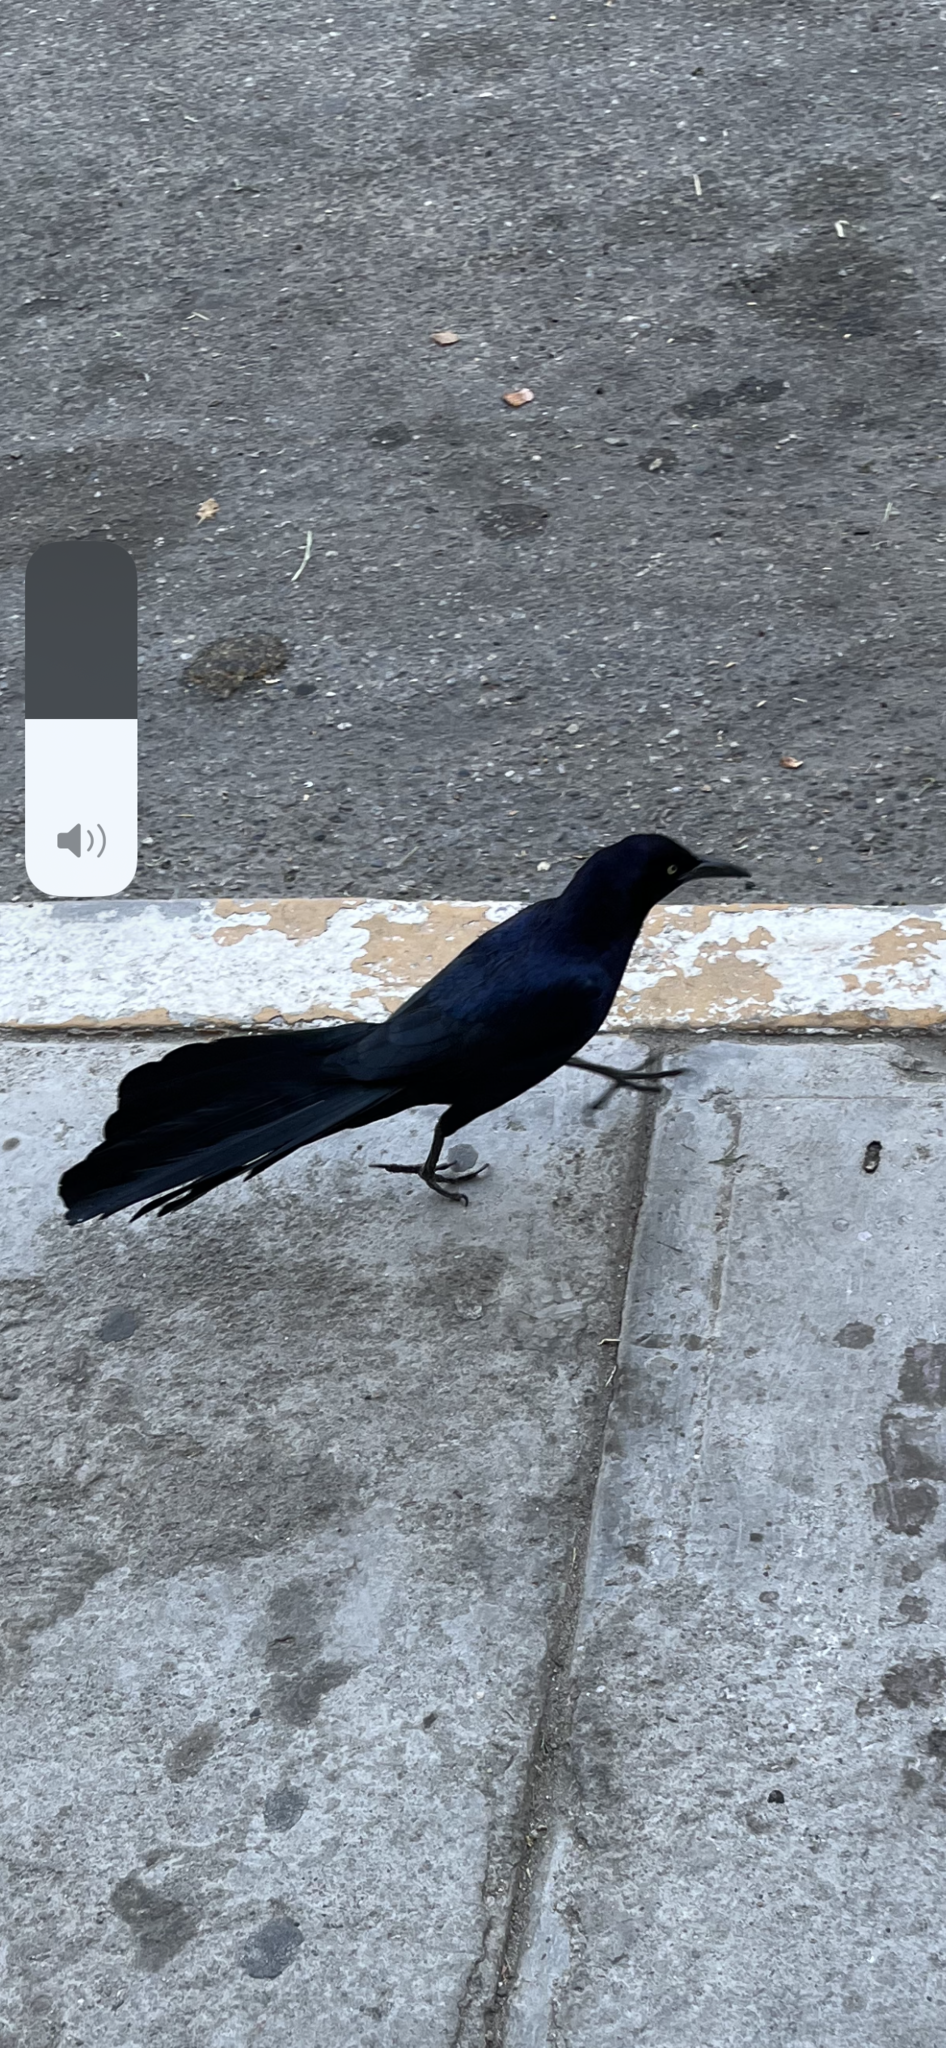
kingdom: Animalia
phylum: Chordata
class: Aves
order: Passeriformes
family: Icteridae
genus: Quiscalus
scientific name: Quiscalus mexicanus
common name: Great-tailed grackle
